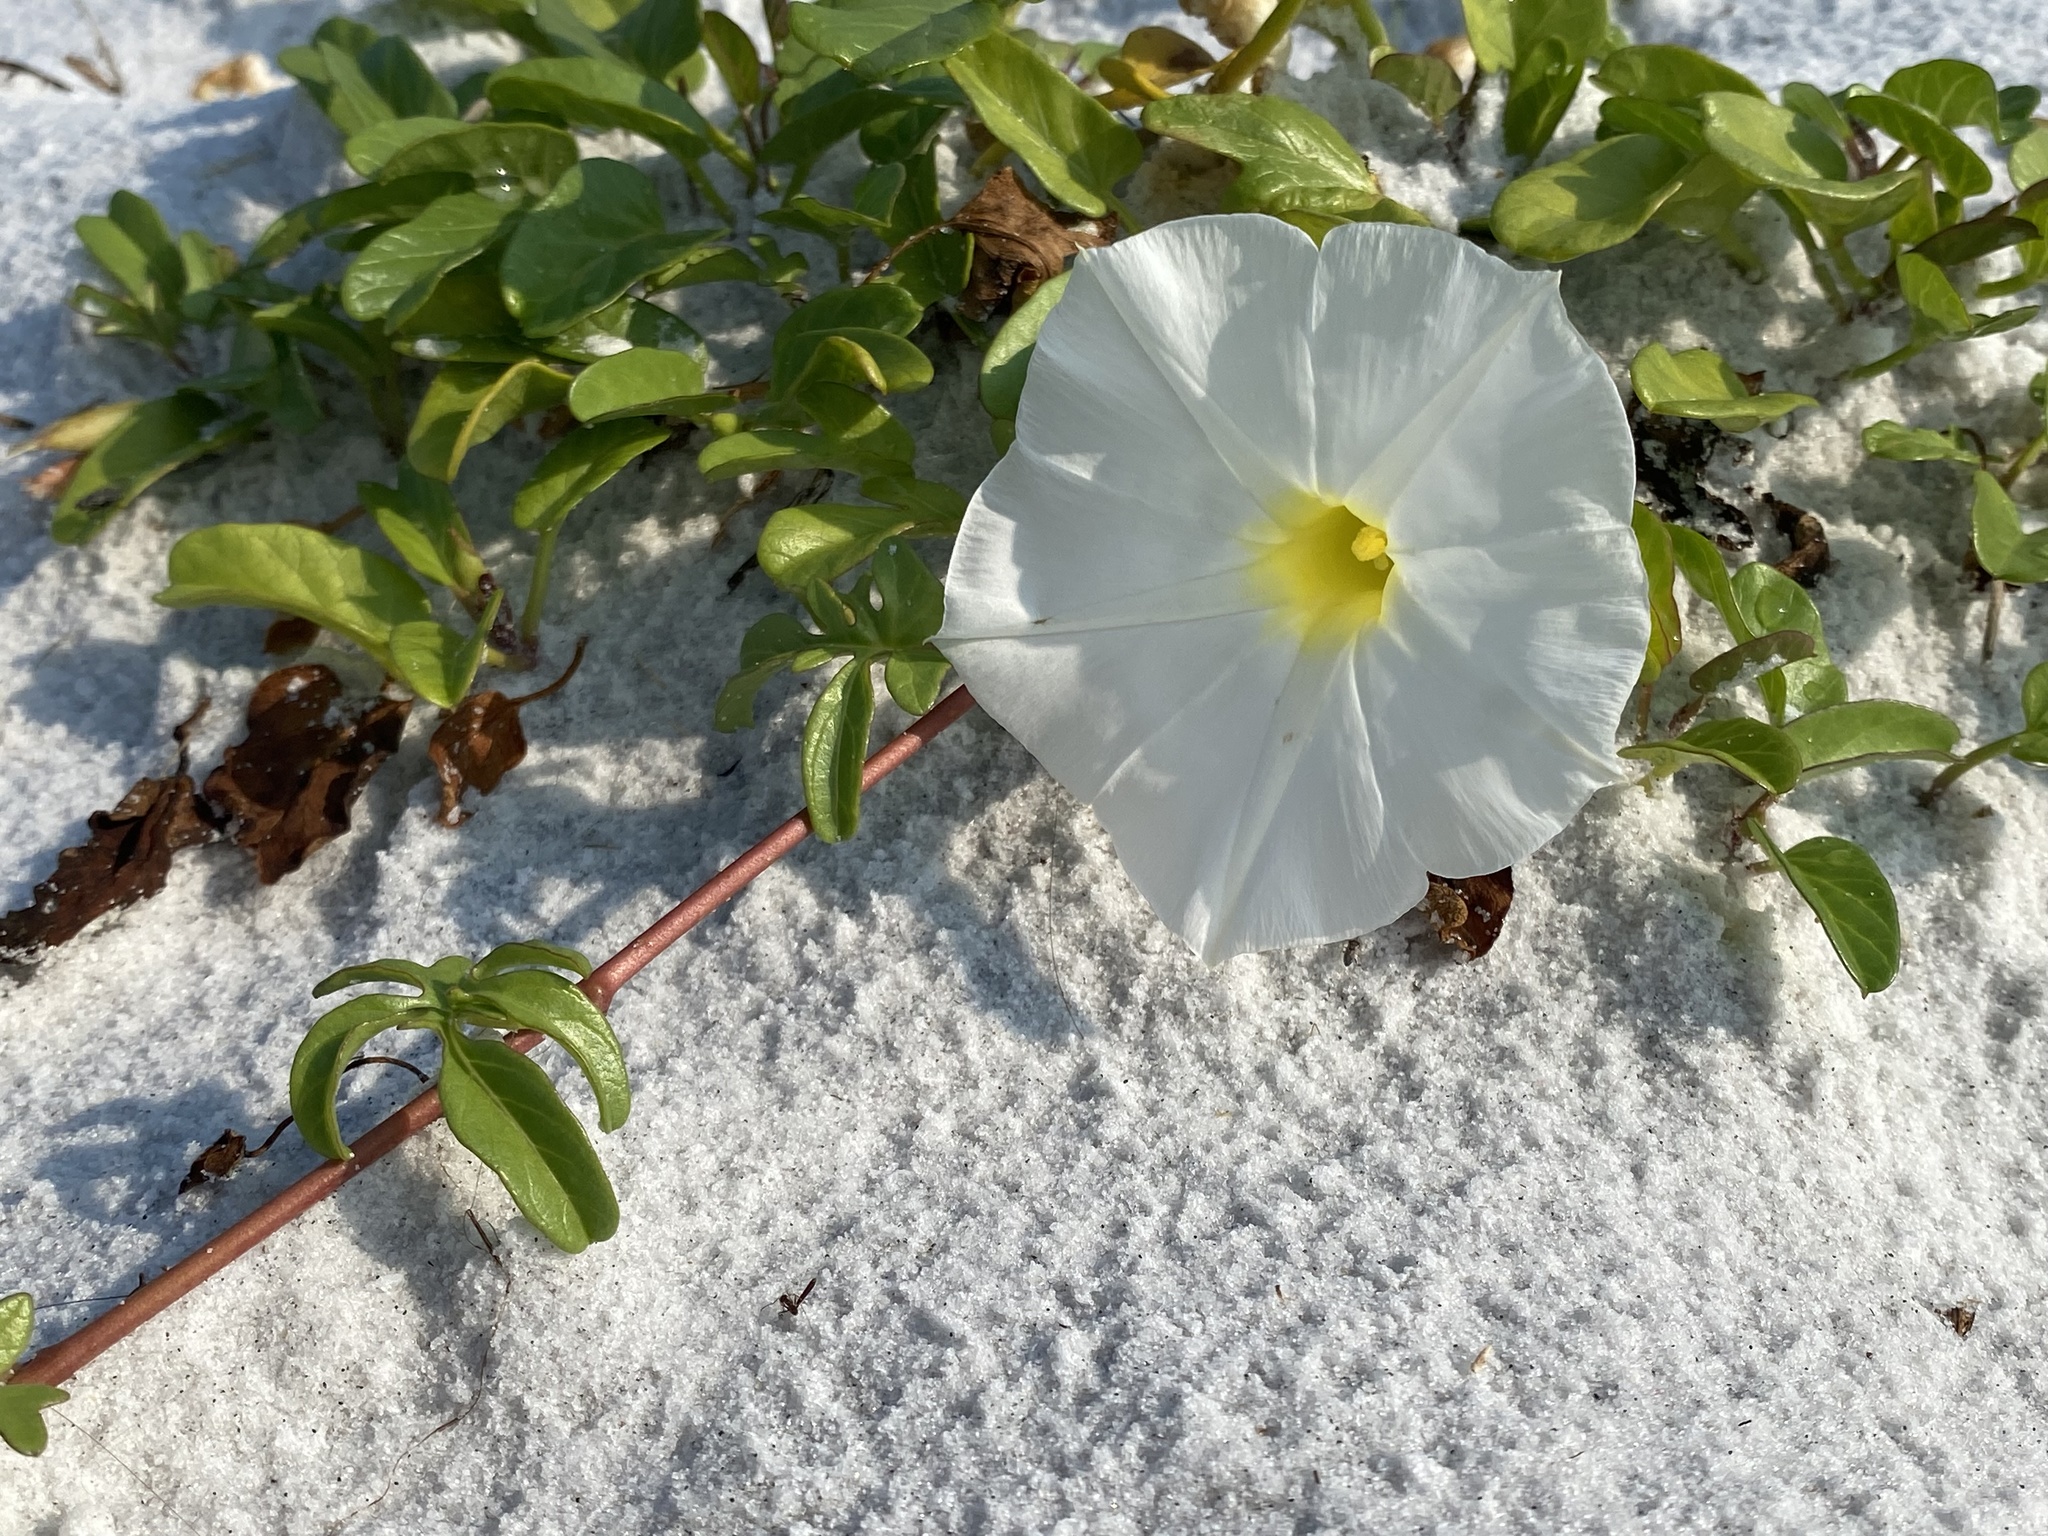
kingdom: Plantae
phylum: Tracheophyta
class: Magnoliopsida
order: Solanales
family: Convolvulaceae
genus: Ipomoea
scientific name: Ipomoea imperati
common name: Fiddle-leaf morning-glory
